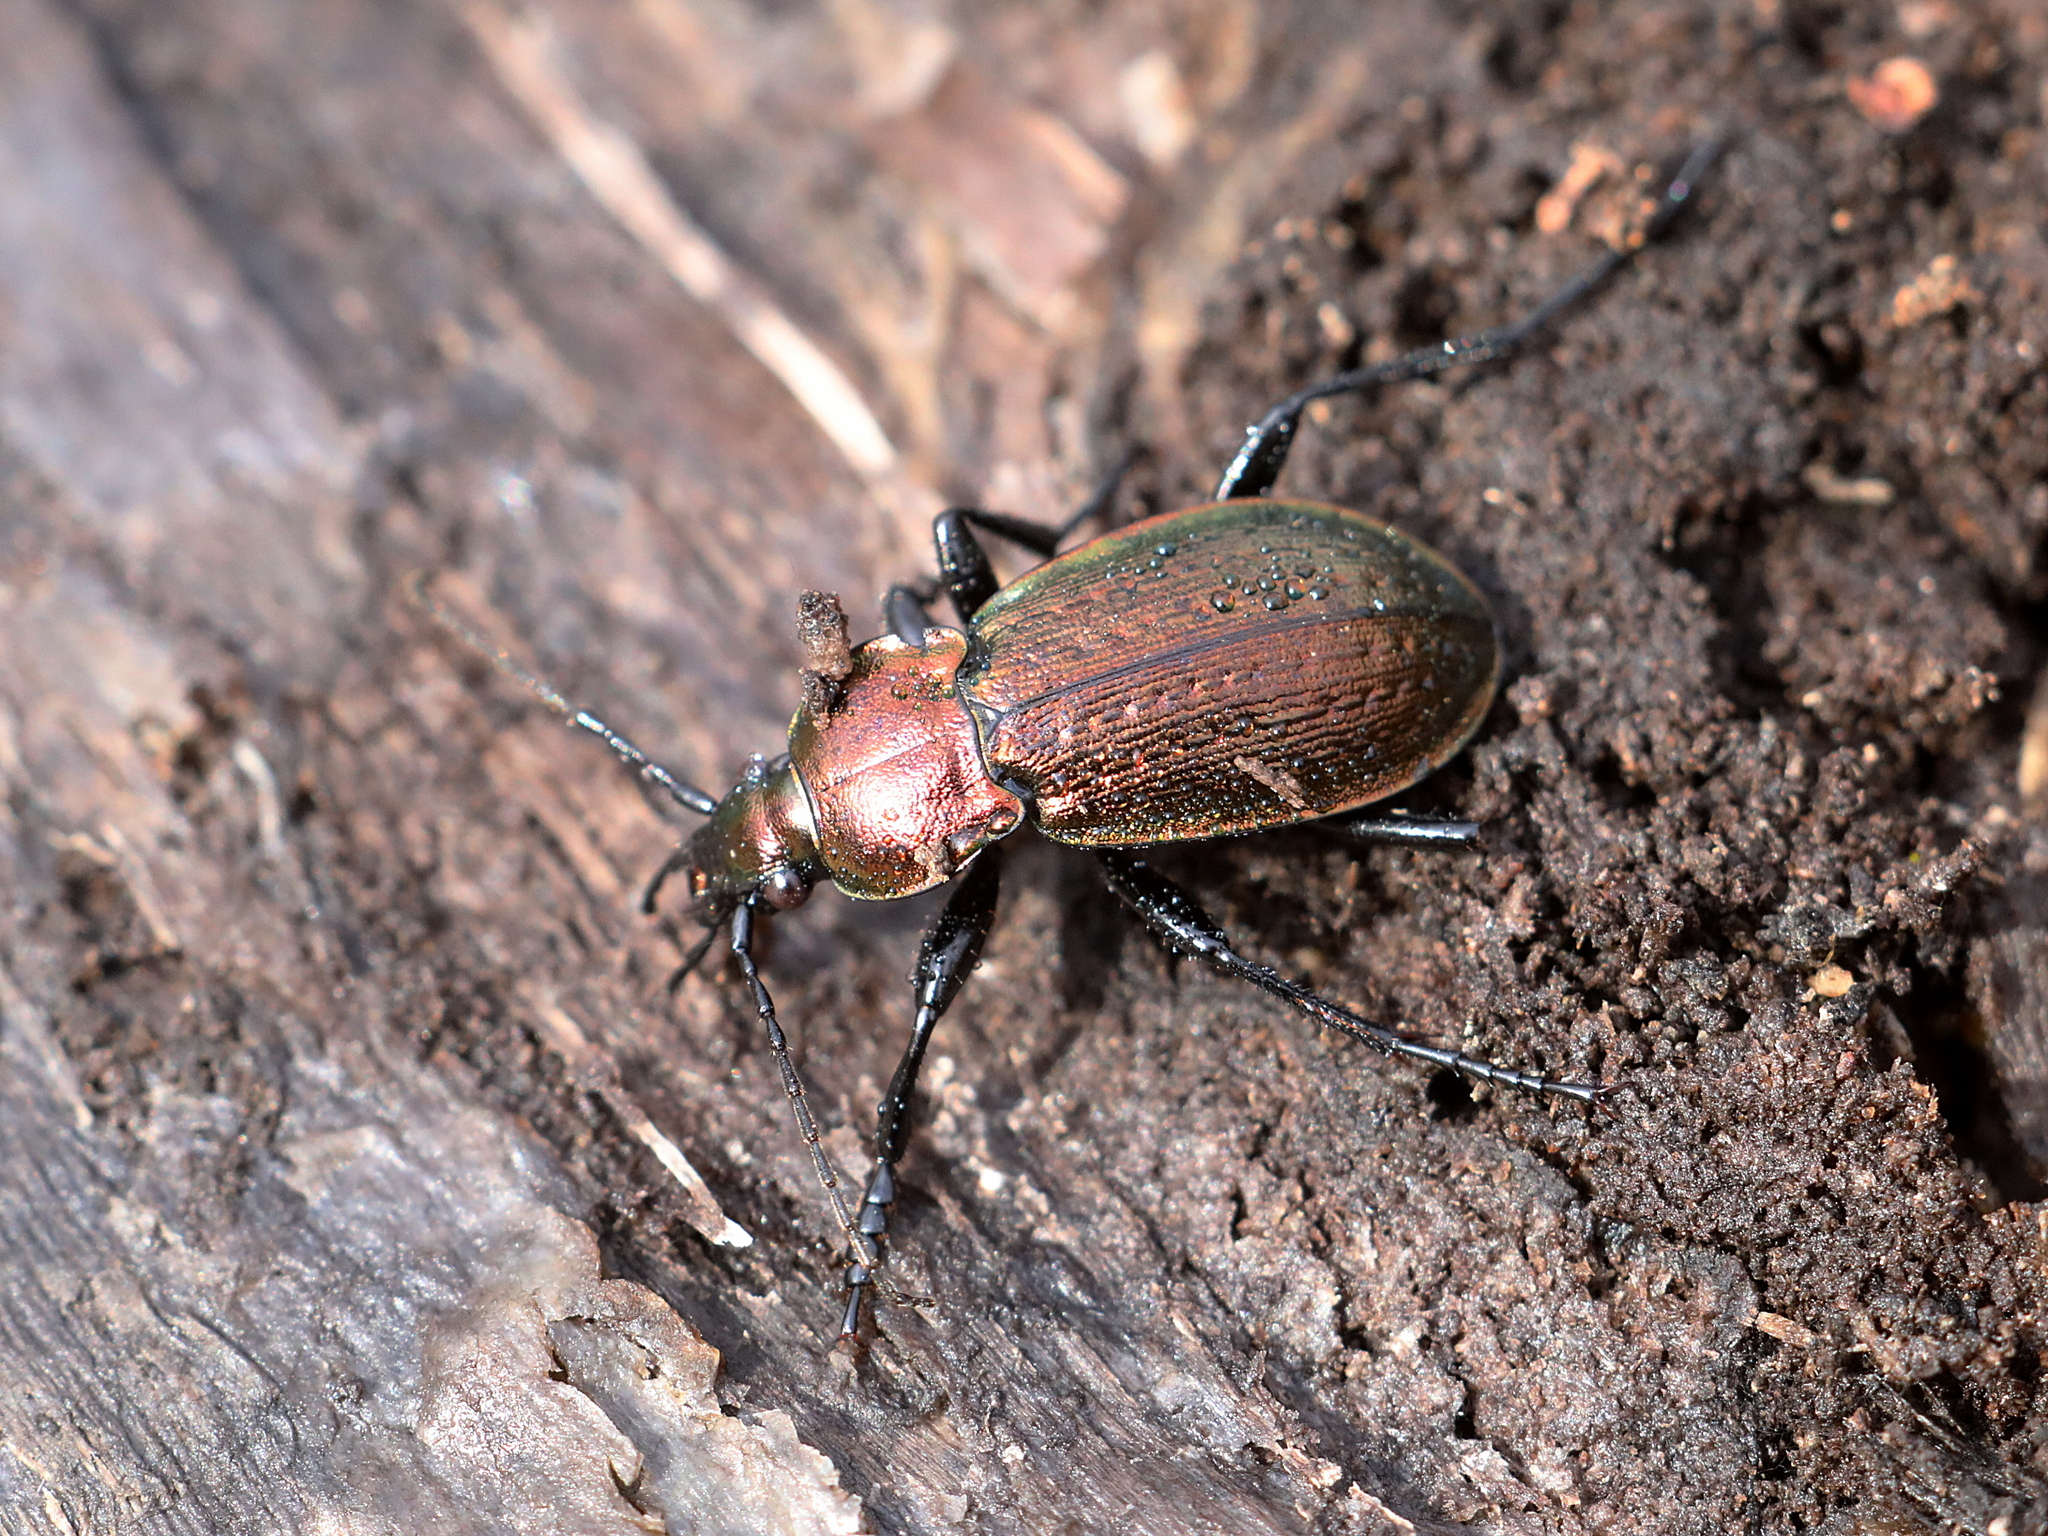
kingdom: Animalia
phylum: Arthropoda
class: Insecta
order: Coleoptera
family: Carabidae
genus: Carabus
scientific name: Carabus arvensis
